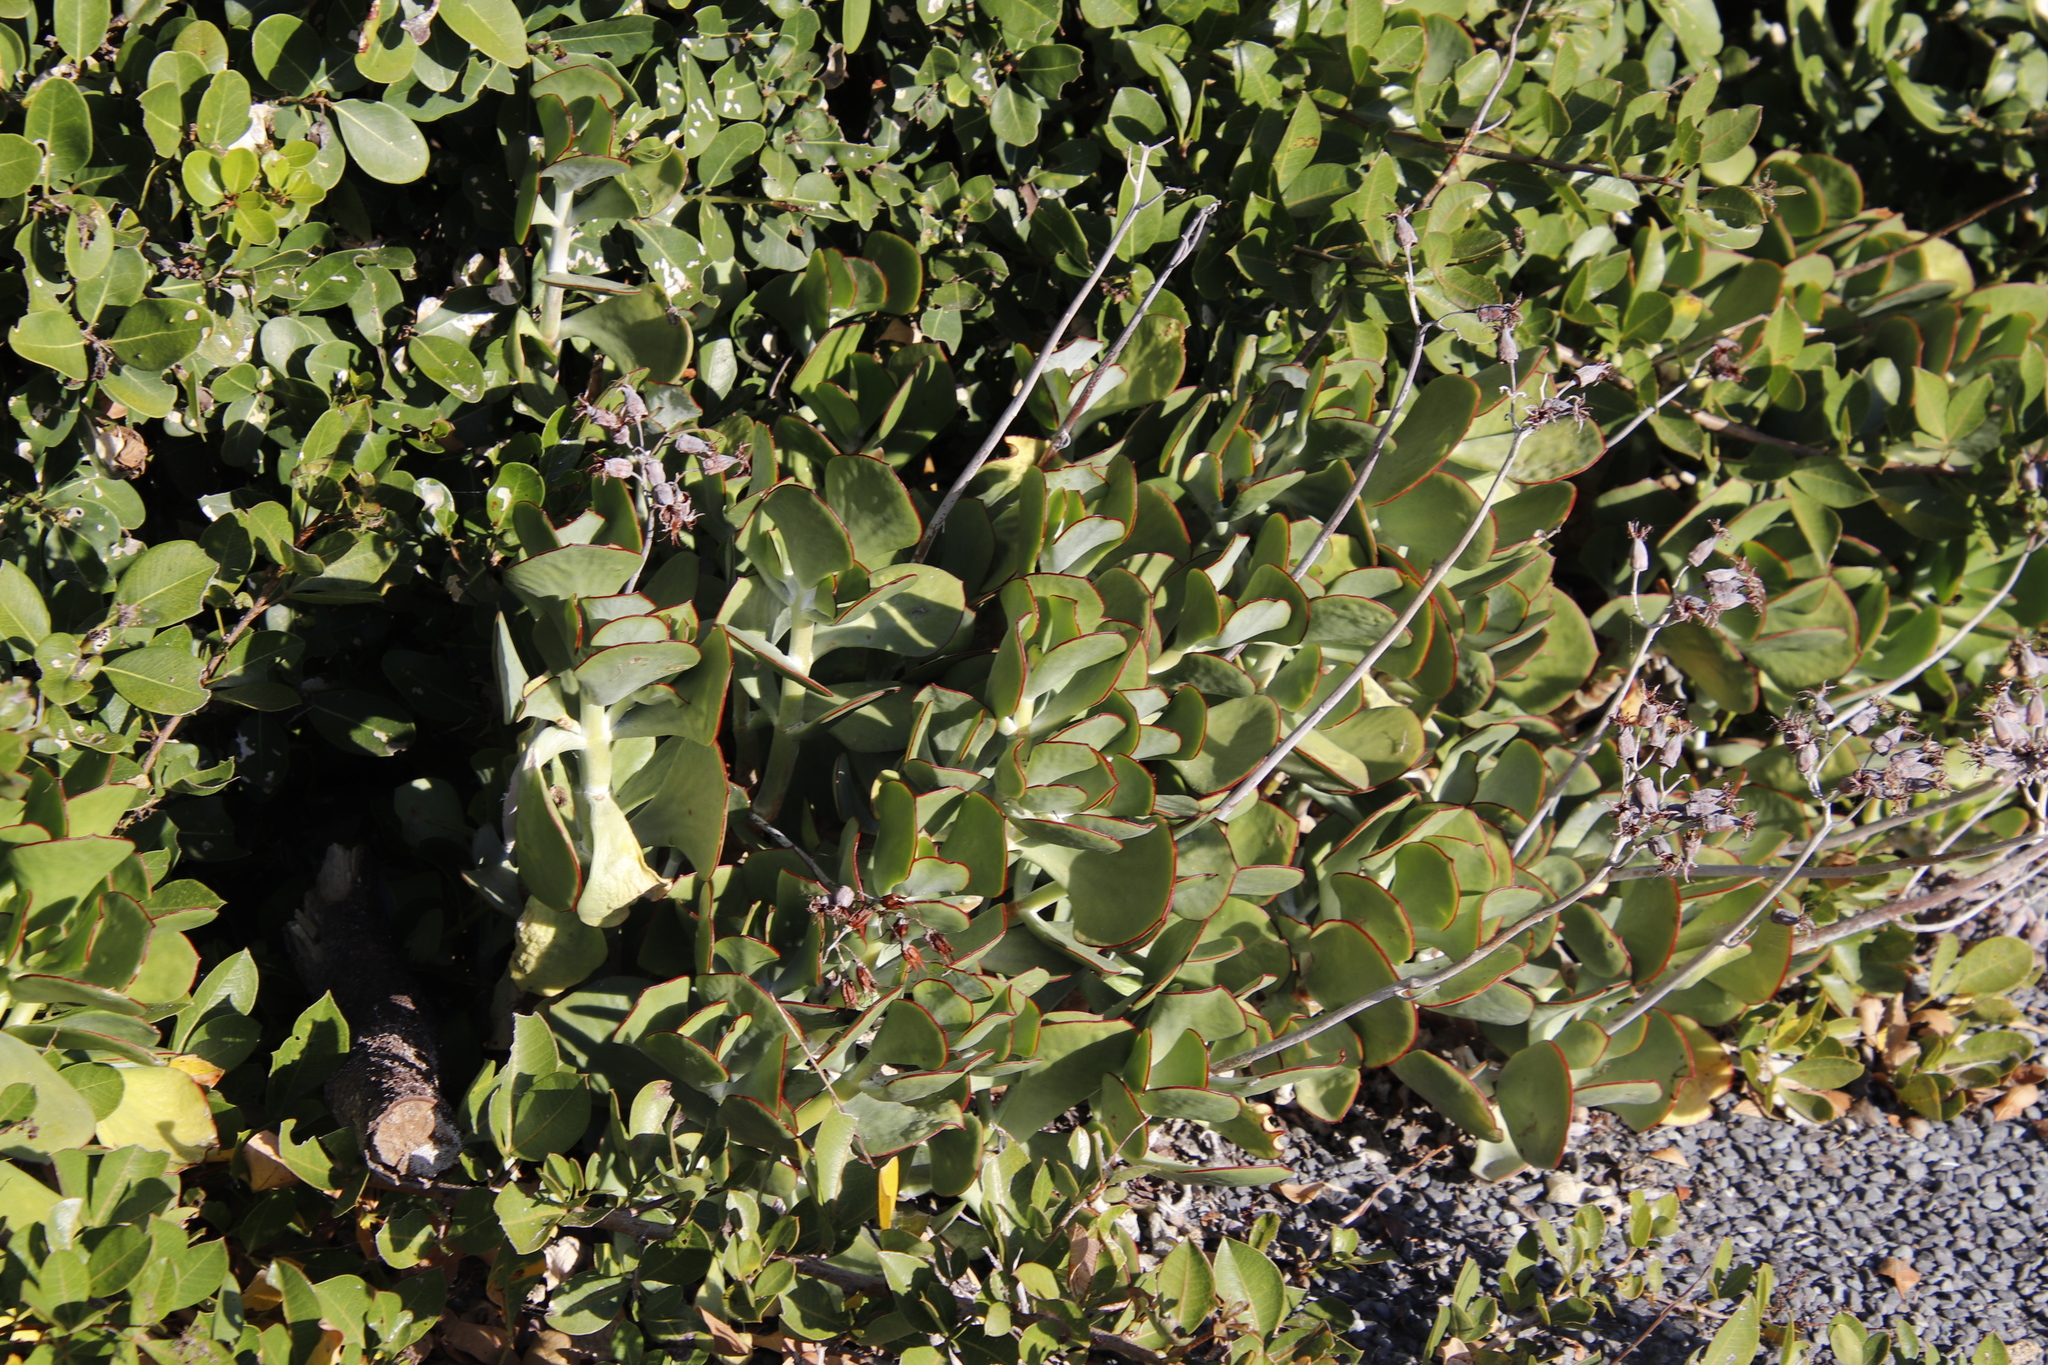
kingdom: Plantae
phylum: Tracheophyta
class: Magnoliopsida
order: Saxifragales
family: Crassulaceae
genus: Cotyledon
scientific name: Cotyledon orbiculata
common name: Pig's ear
